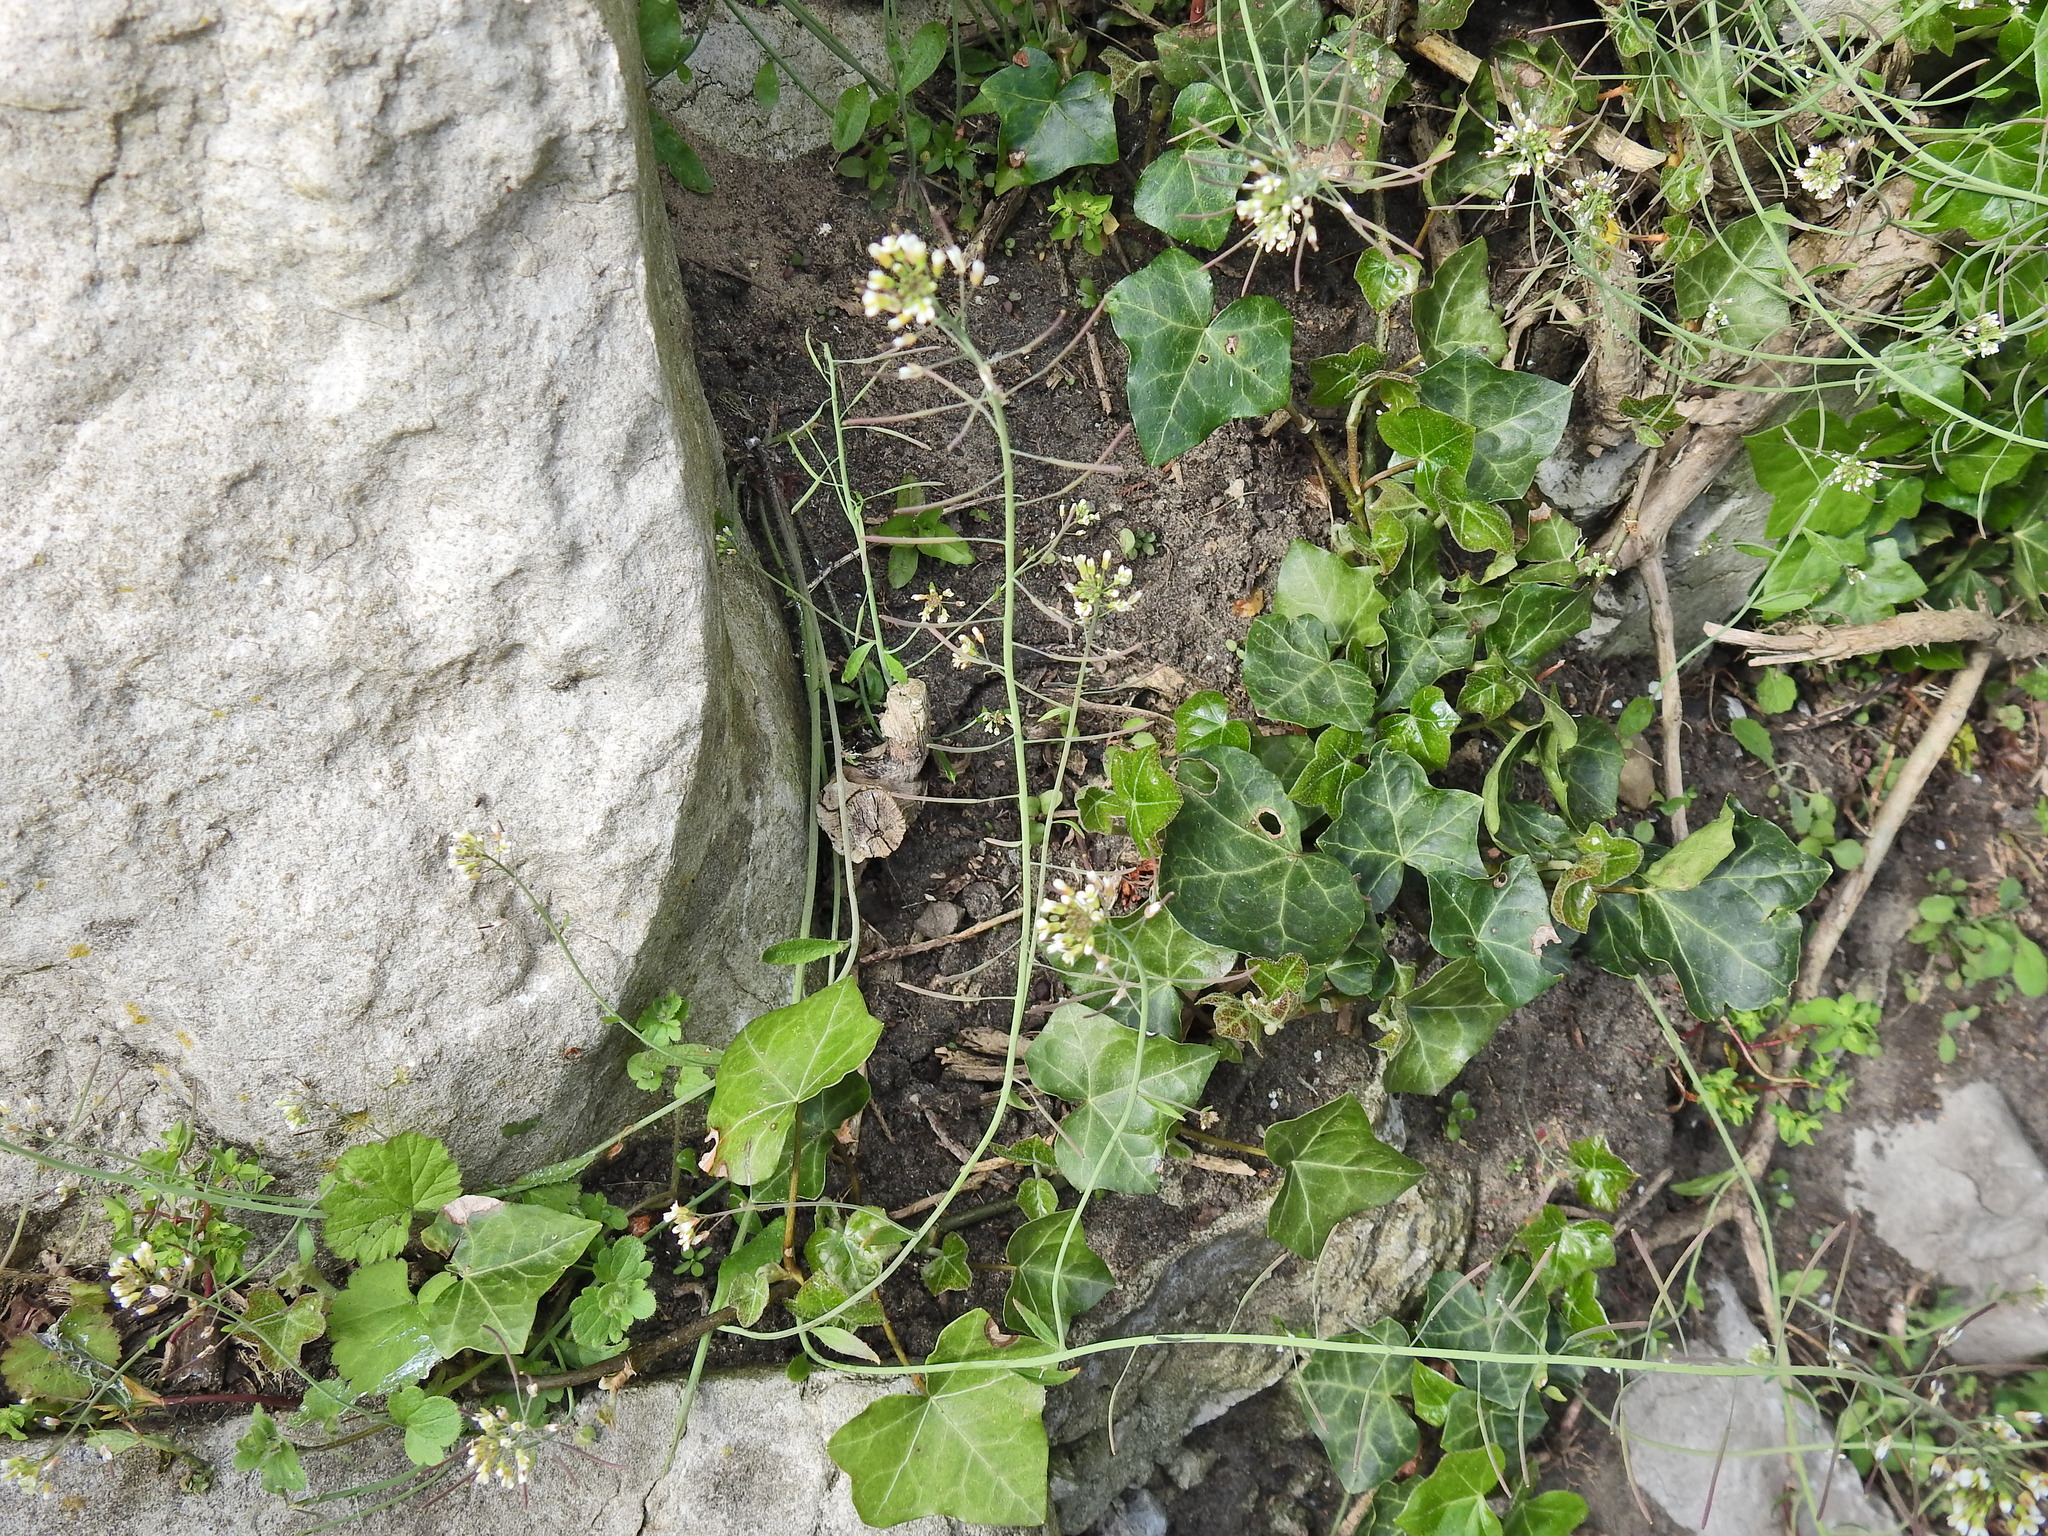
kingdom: Plantae
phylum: Tracheophyta
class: Magnoliopsida
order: Brassicales
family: Brassicaceae
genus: Arabidopsis
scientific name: Arabidopsis thaliana
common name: Thale cress
